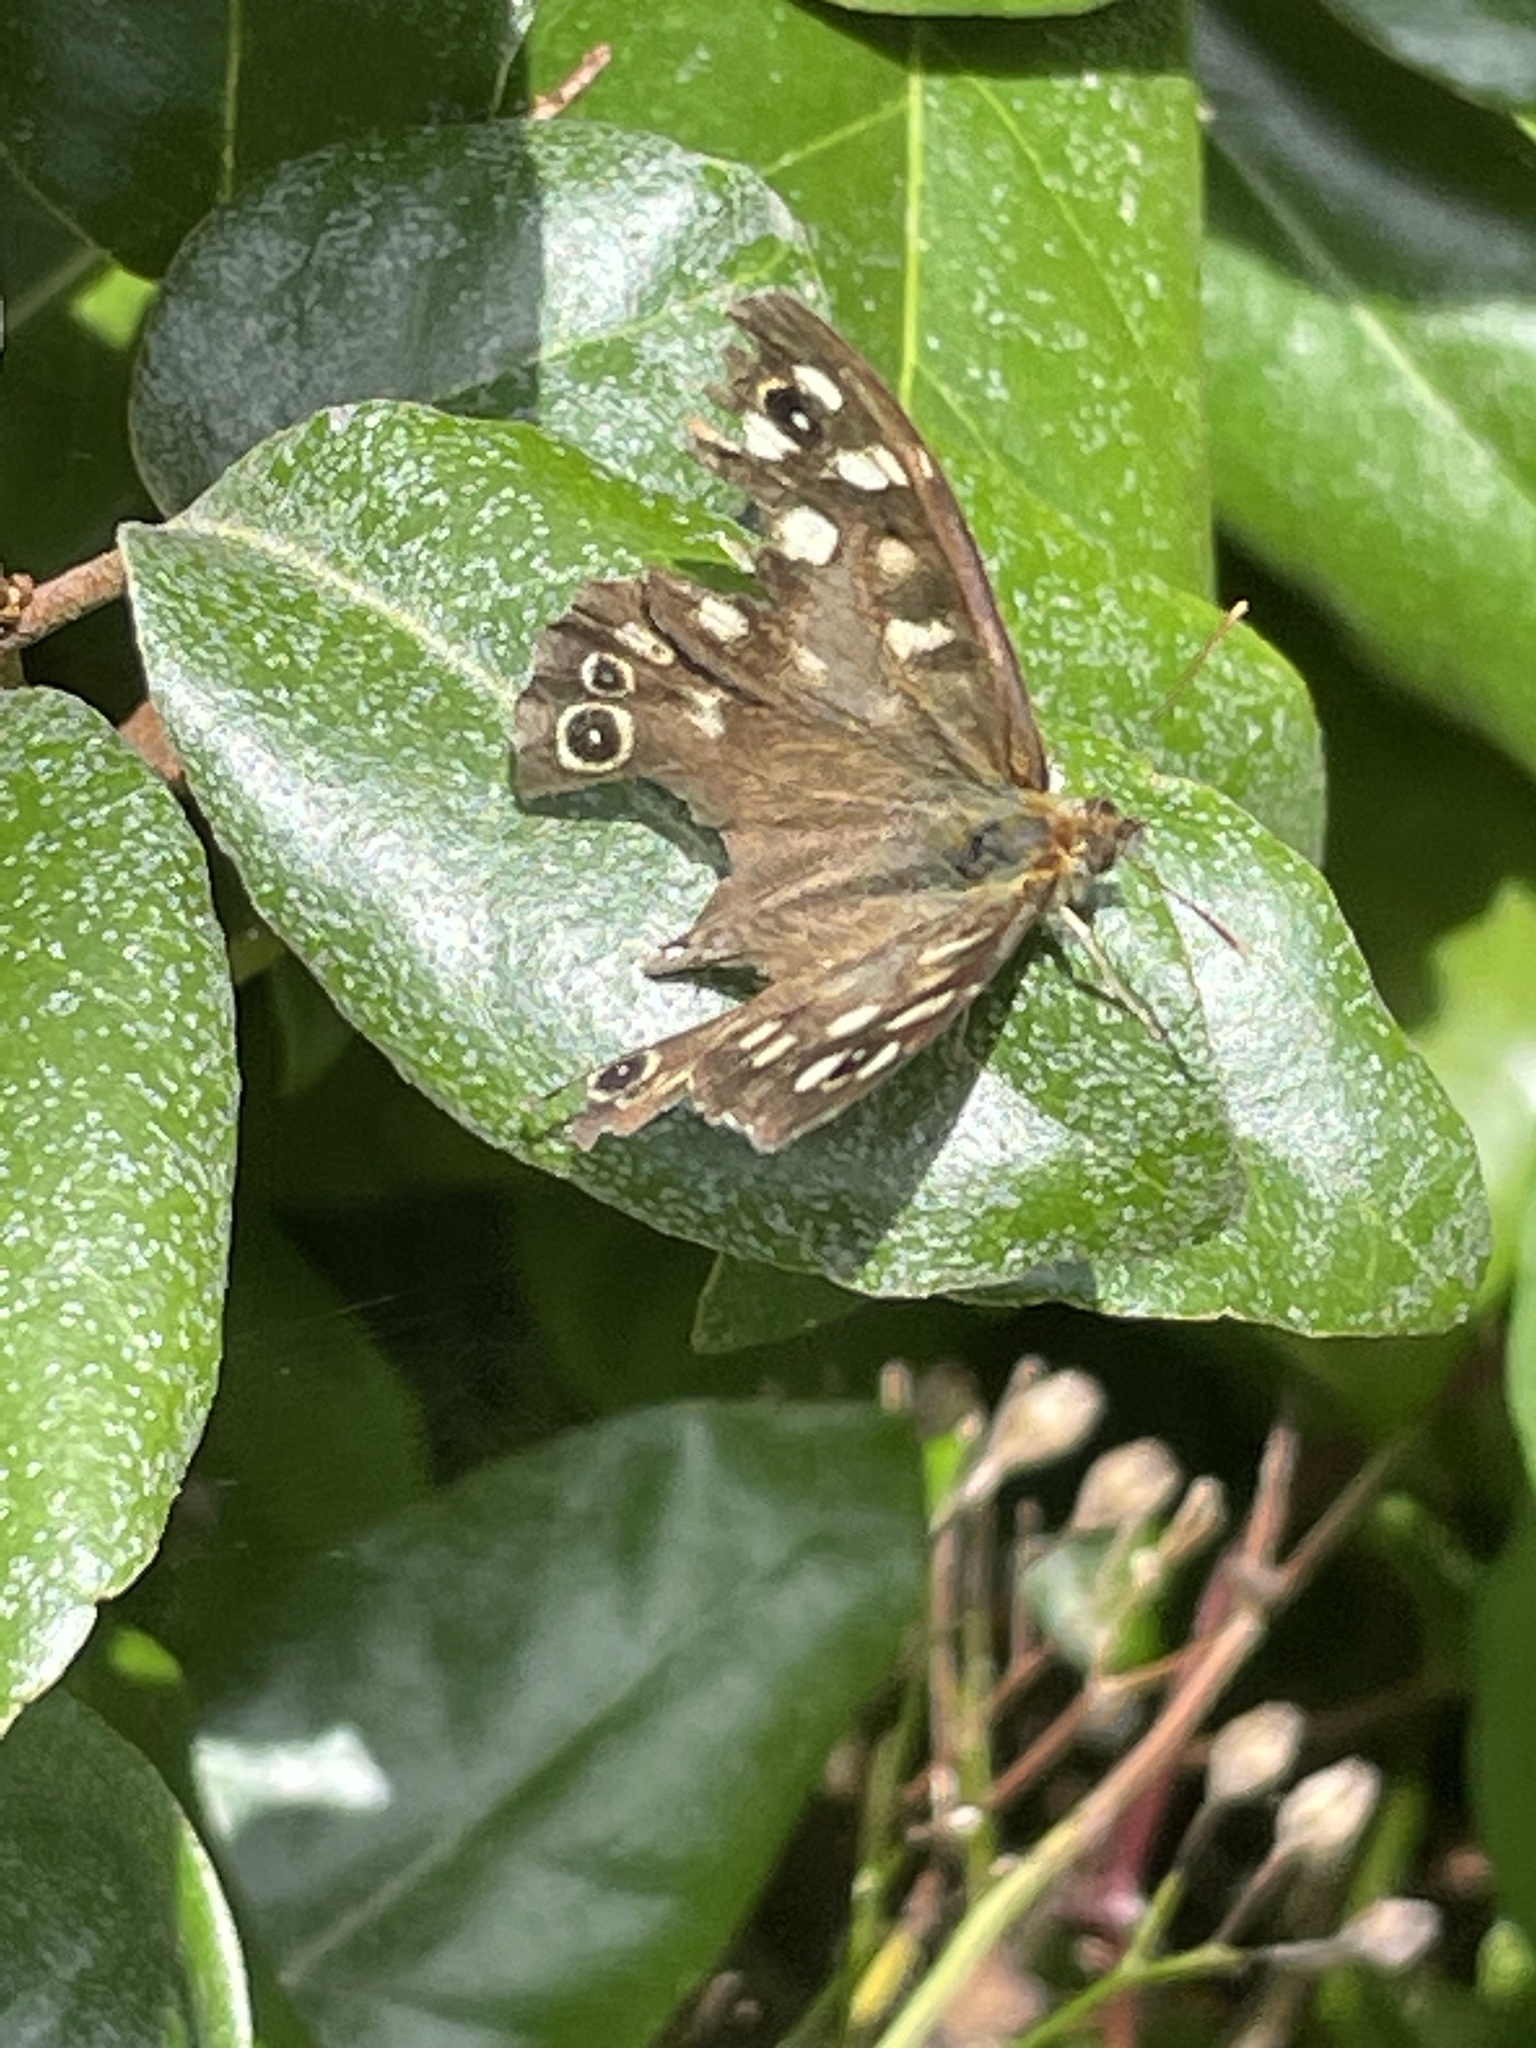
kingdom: Animalia
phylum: Arthropoda
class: Insecta
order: Lepidoptera
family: Nymphalidae
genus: Pararge
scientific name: Pararge aegeria
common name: Speckled wood
